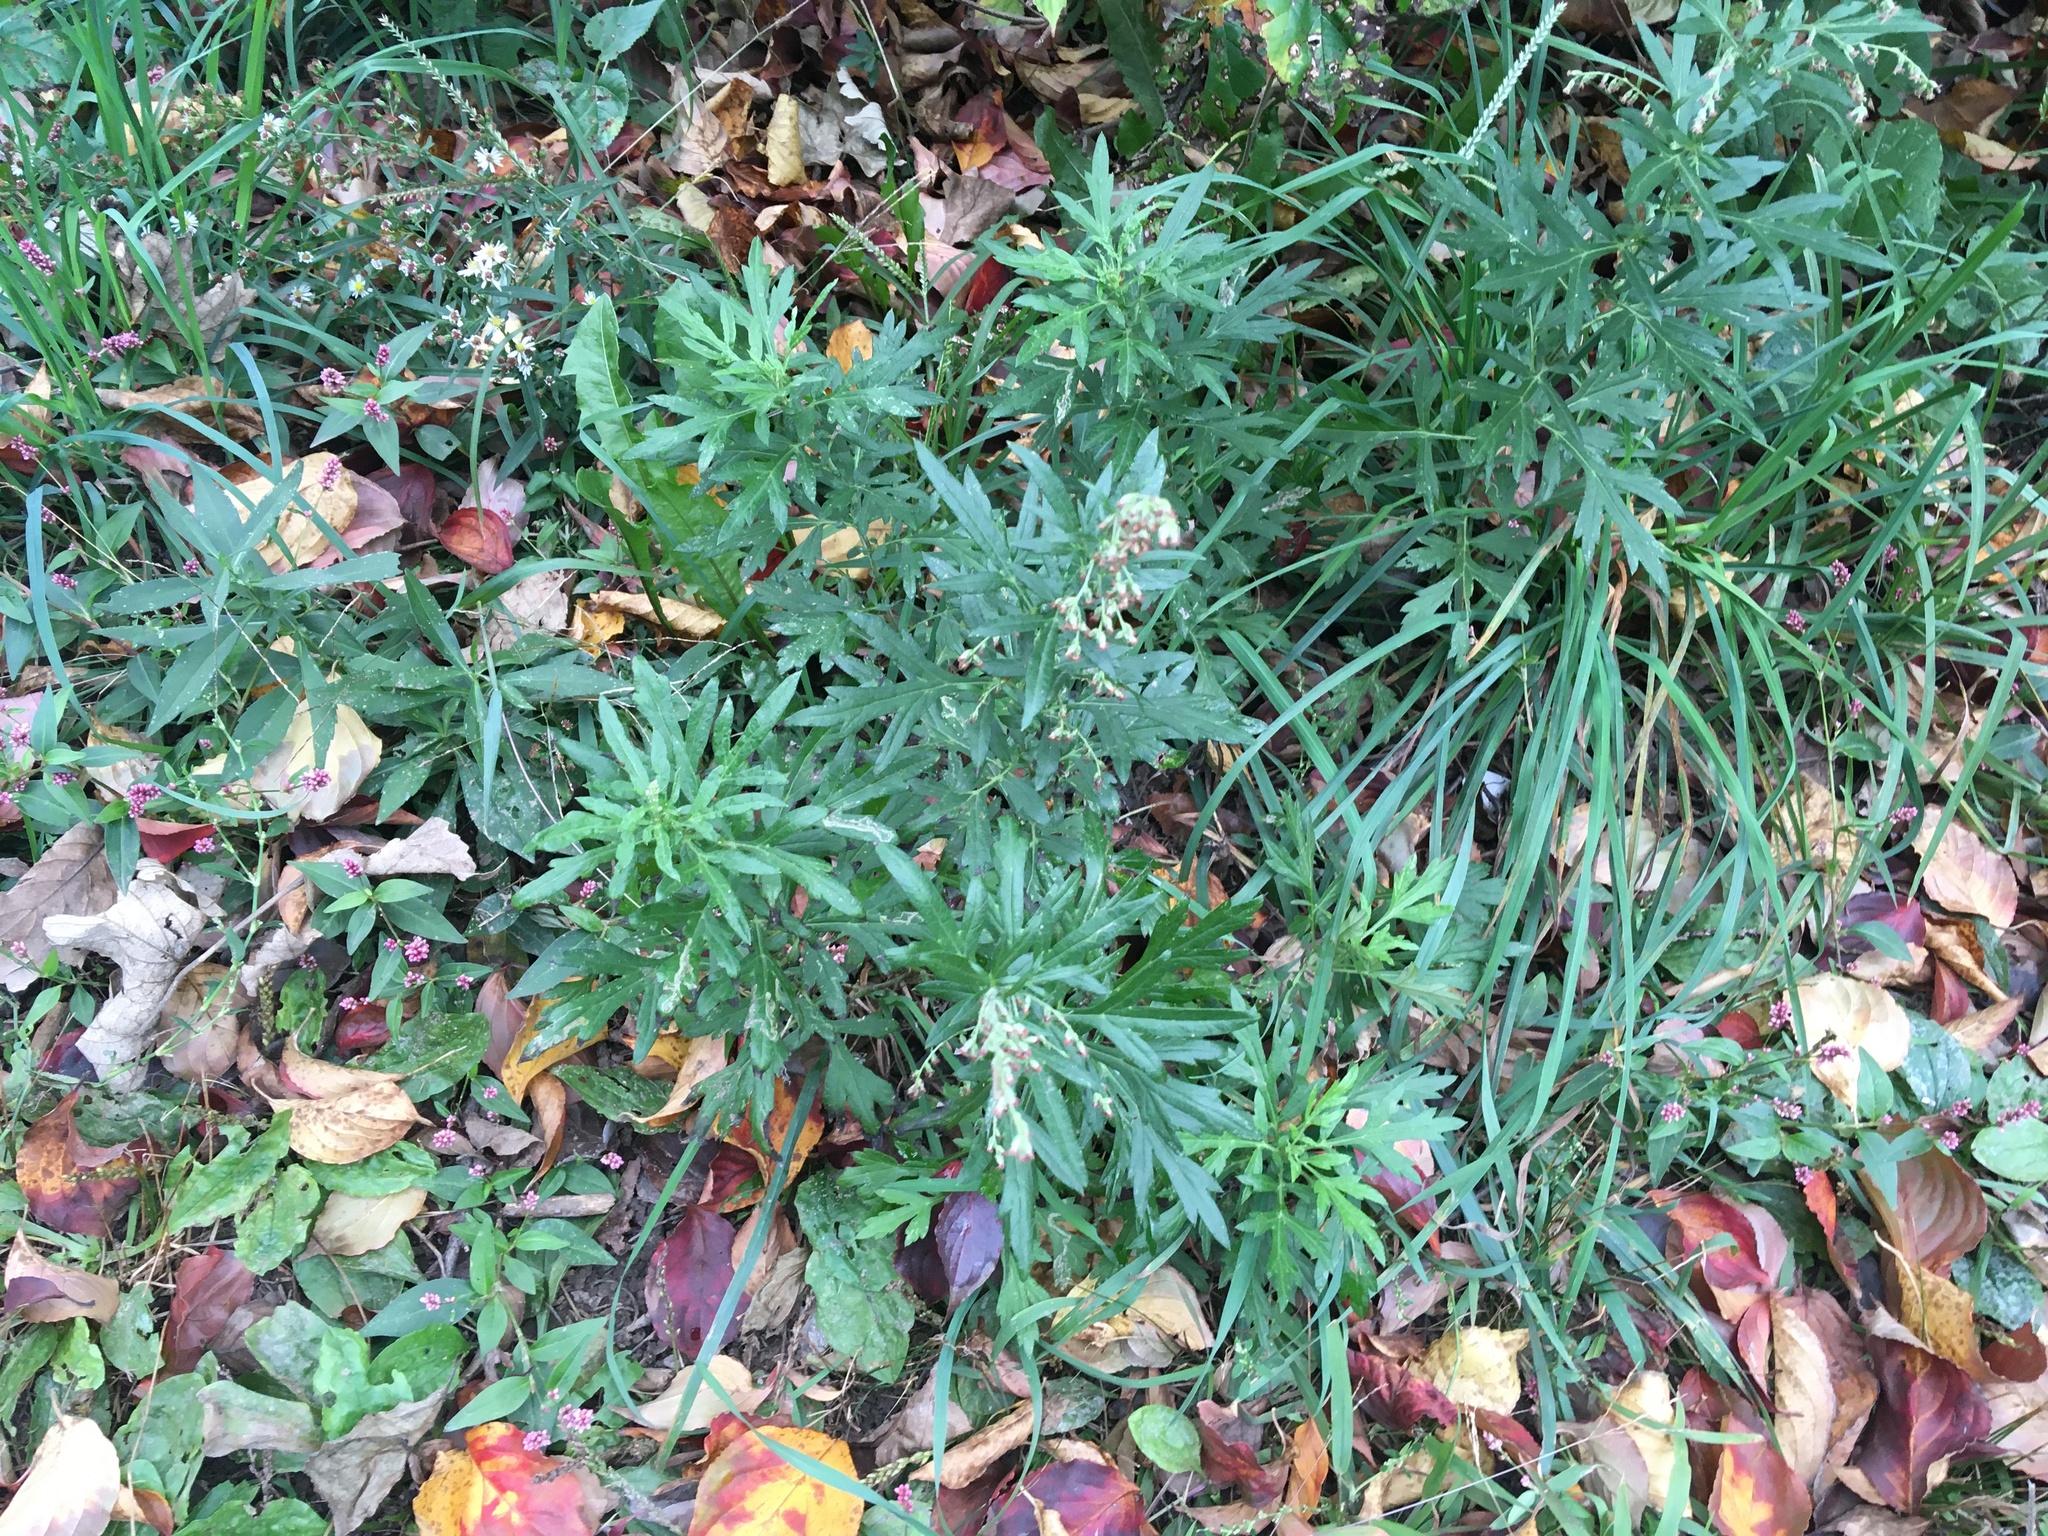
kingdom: Plantae
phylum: Tracheophyta
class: Magnoliopsida
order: Asterales
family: Asteraceae
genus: Artemisia
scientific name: Artemisia vulgaris
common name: Mugwort
